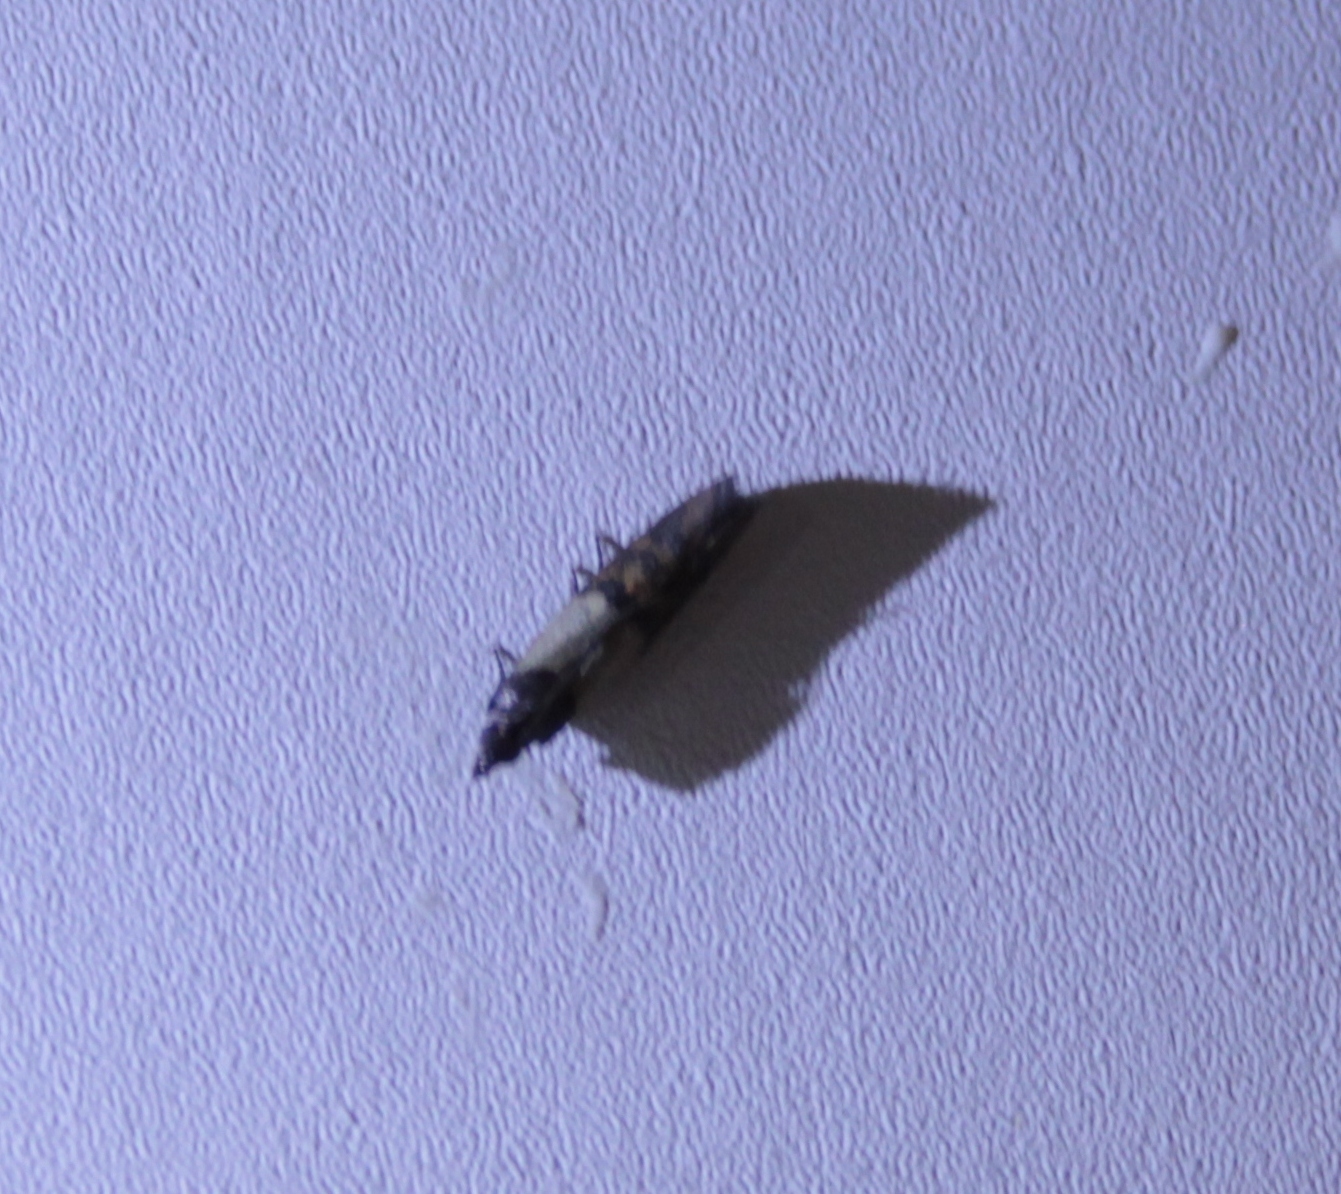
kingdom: Animalia
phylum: Arthropoda
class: Insecta
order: Lepidoptera
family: Pyralidae
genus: Plodia
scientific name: Plodia interpunctella
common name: Indian meal moth
